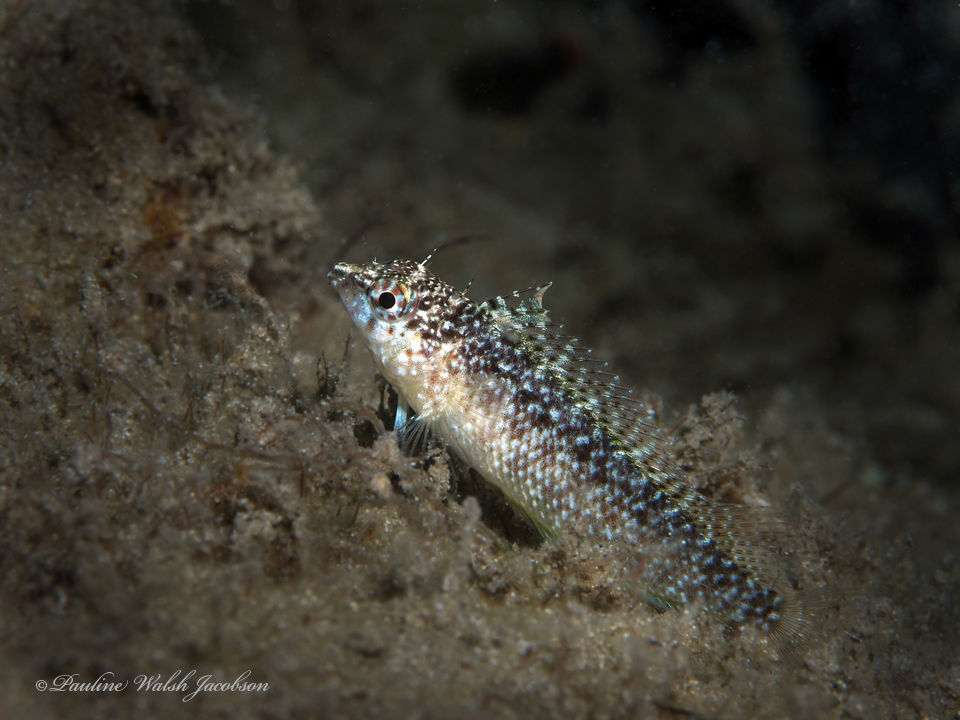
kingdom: Animalia
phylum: Chordata
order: Perciformes
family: Labrisomidae
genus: Malacoctenus
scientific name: Malacoctenus macropus
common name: Rosy blenny
